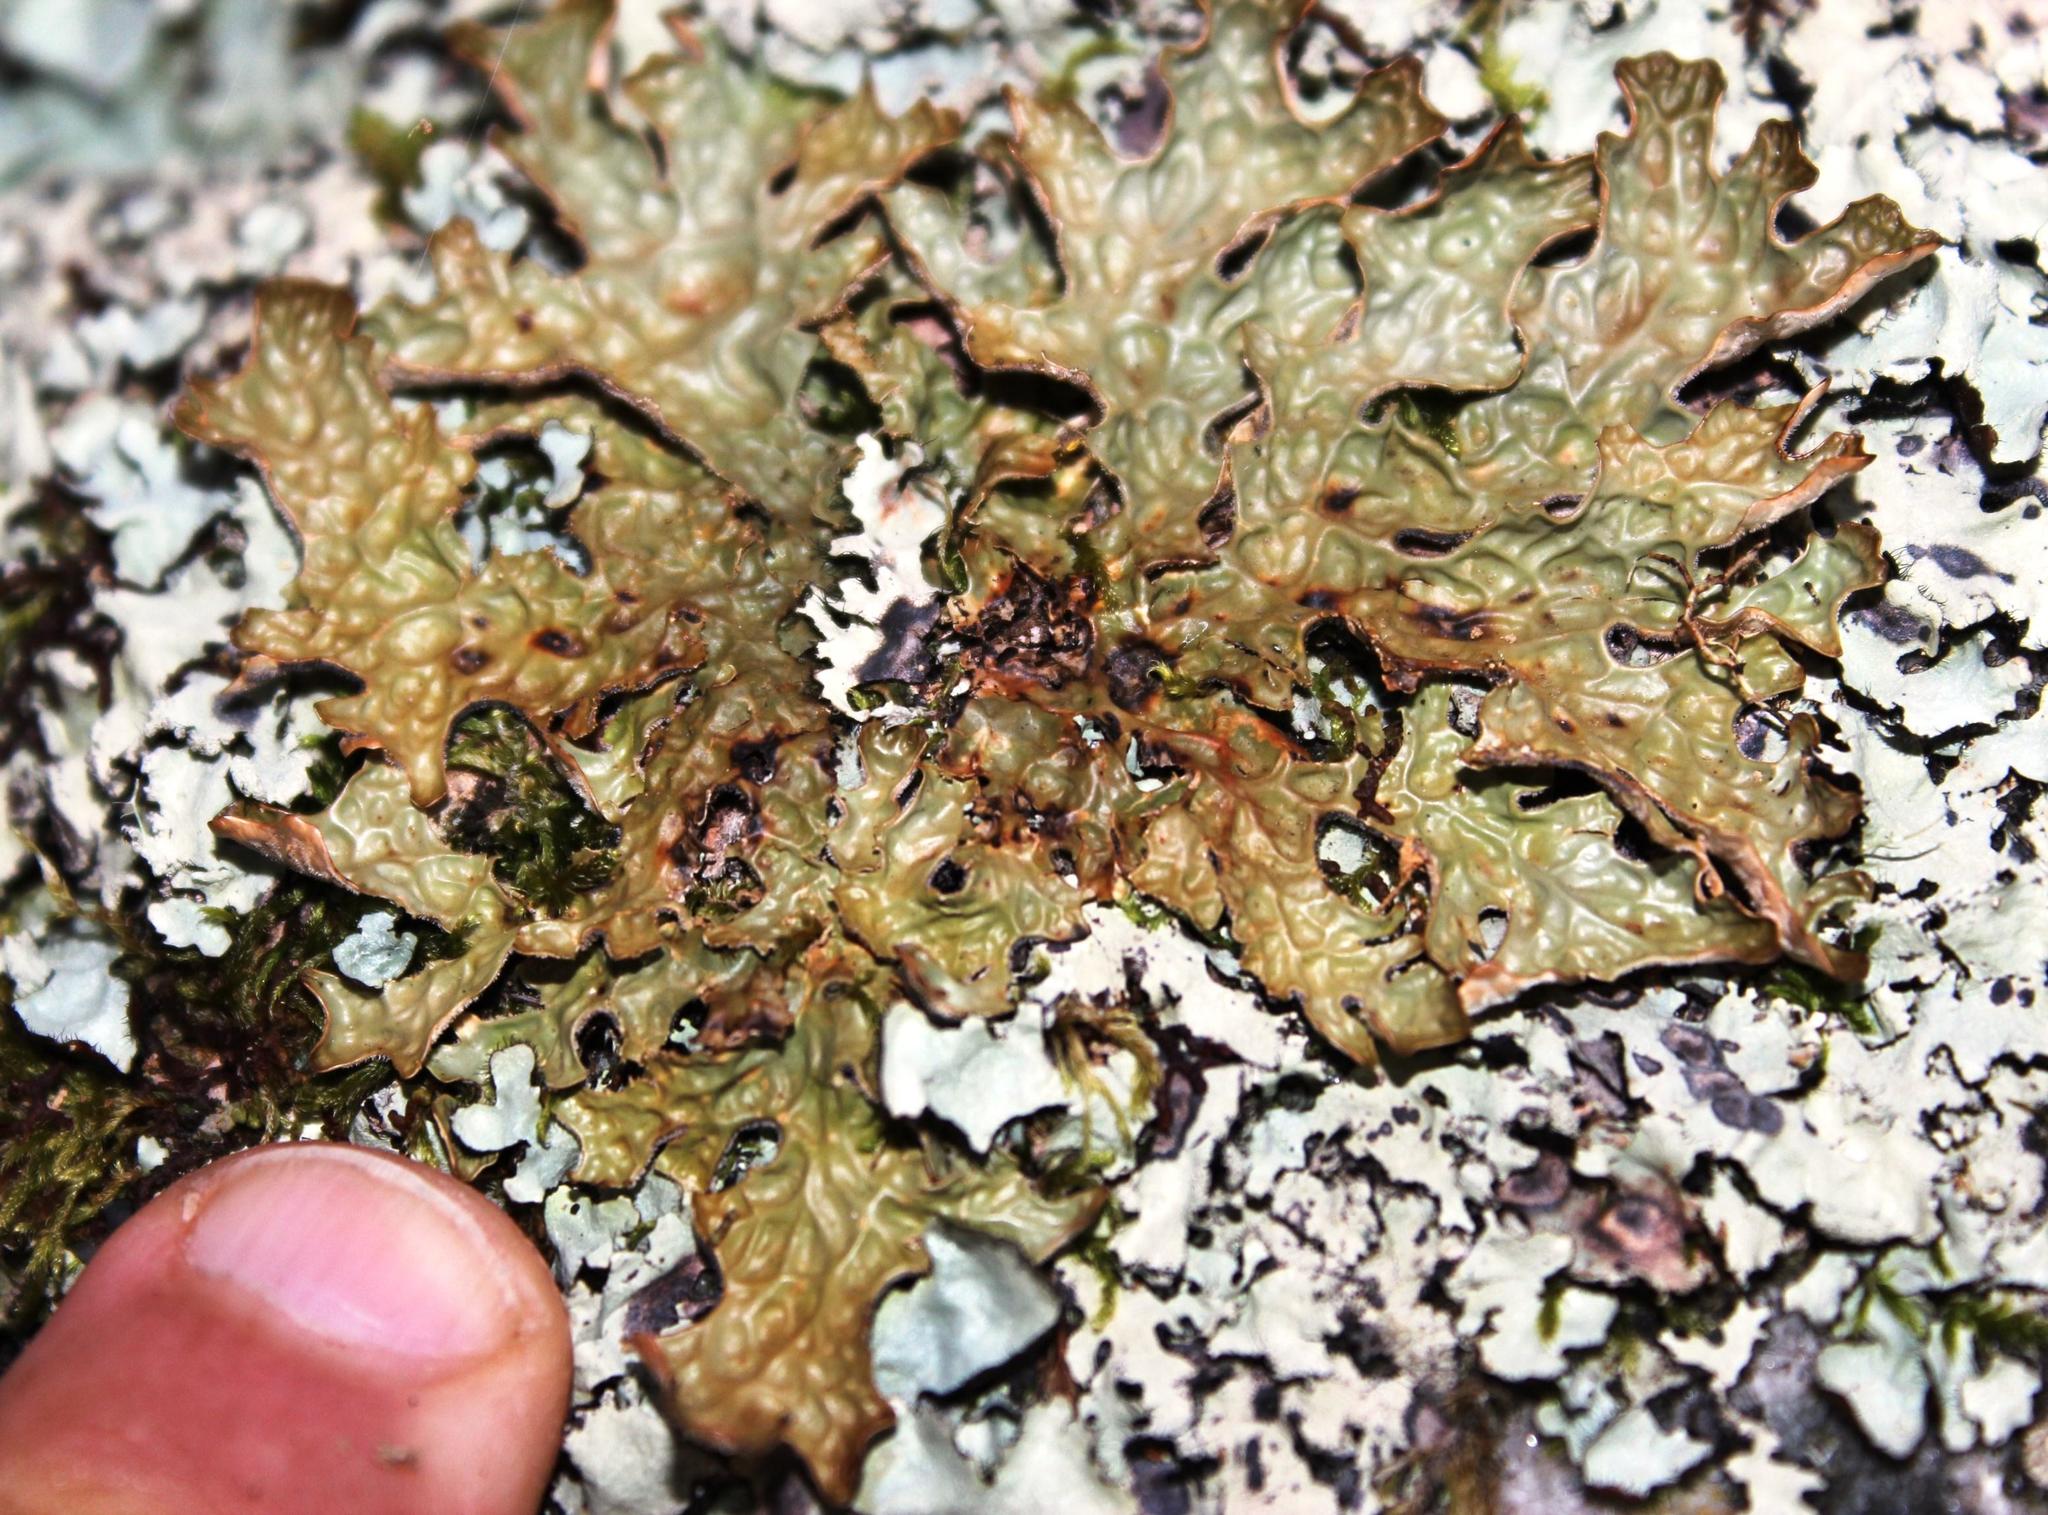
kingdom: Fungi
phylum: Ascomycota
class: Lecanoromycetes
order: Peltigerales
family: Lobariaceae
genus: Lobaria
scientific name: Lobaria pulmonaria
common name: Lungwort
